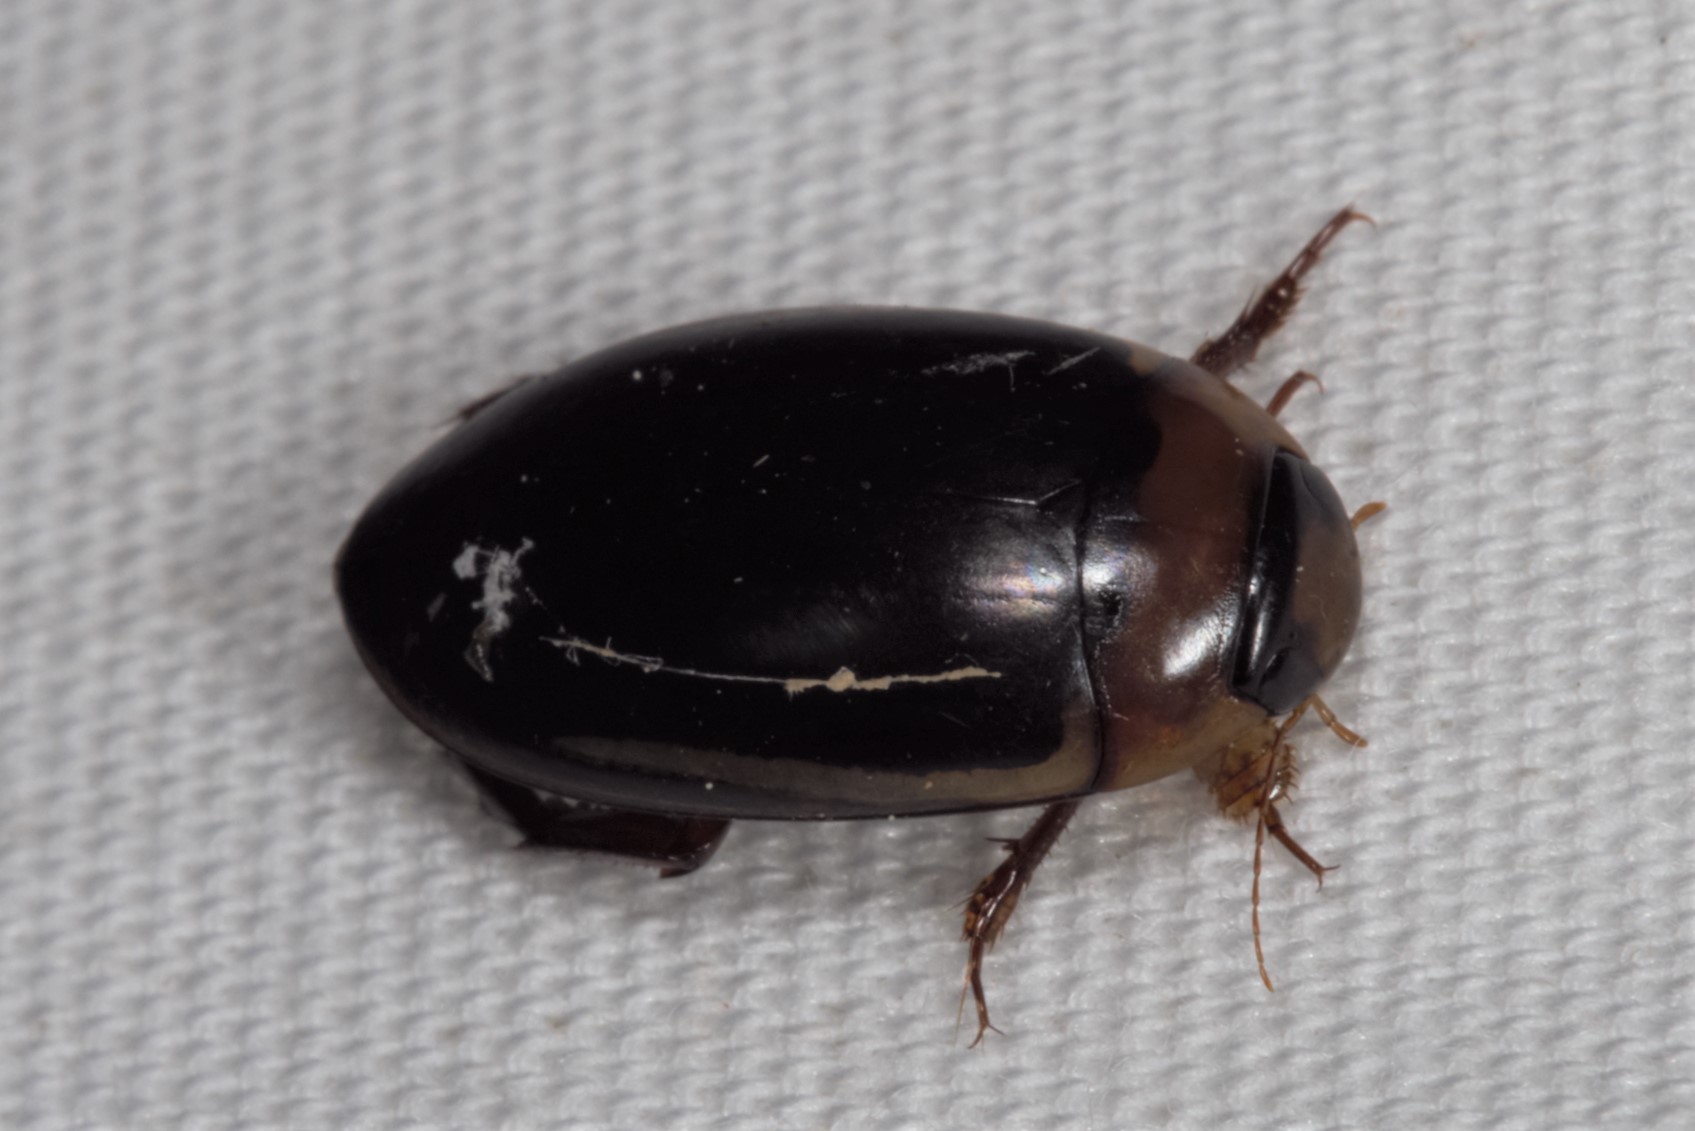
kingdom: Animalia
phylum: Arthropoda
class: Insecta
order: Coleoptera
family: Dytiscidae
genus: Hydaticus
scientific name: Hydaticus bimarginatus
